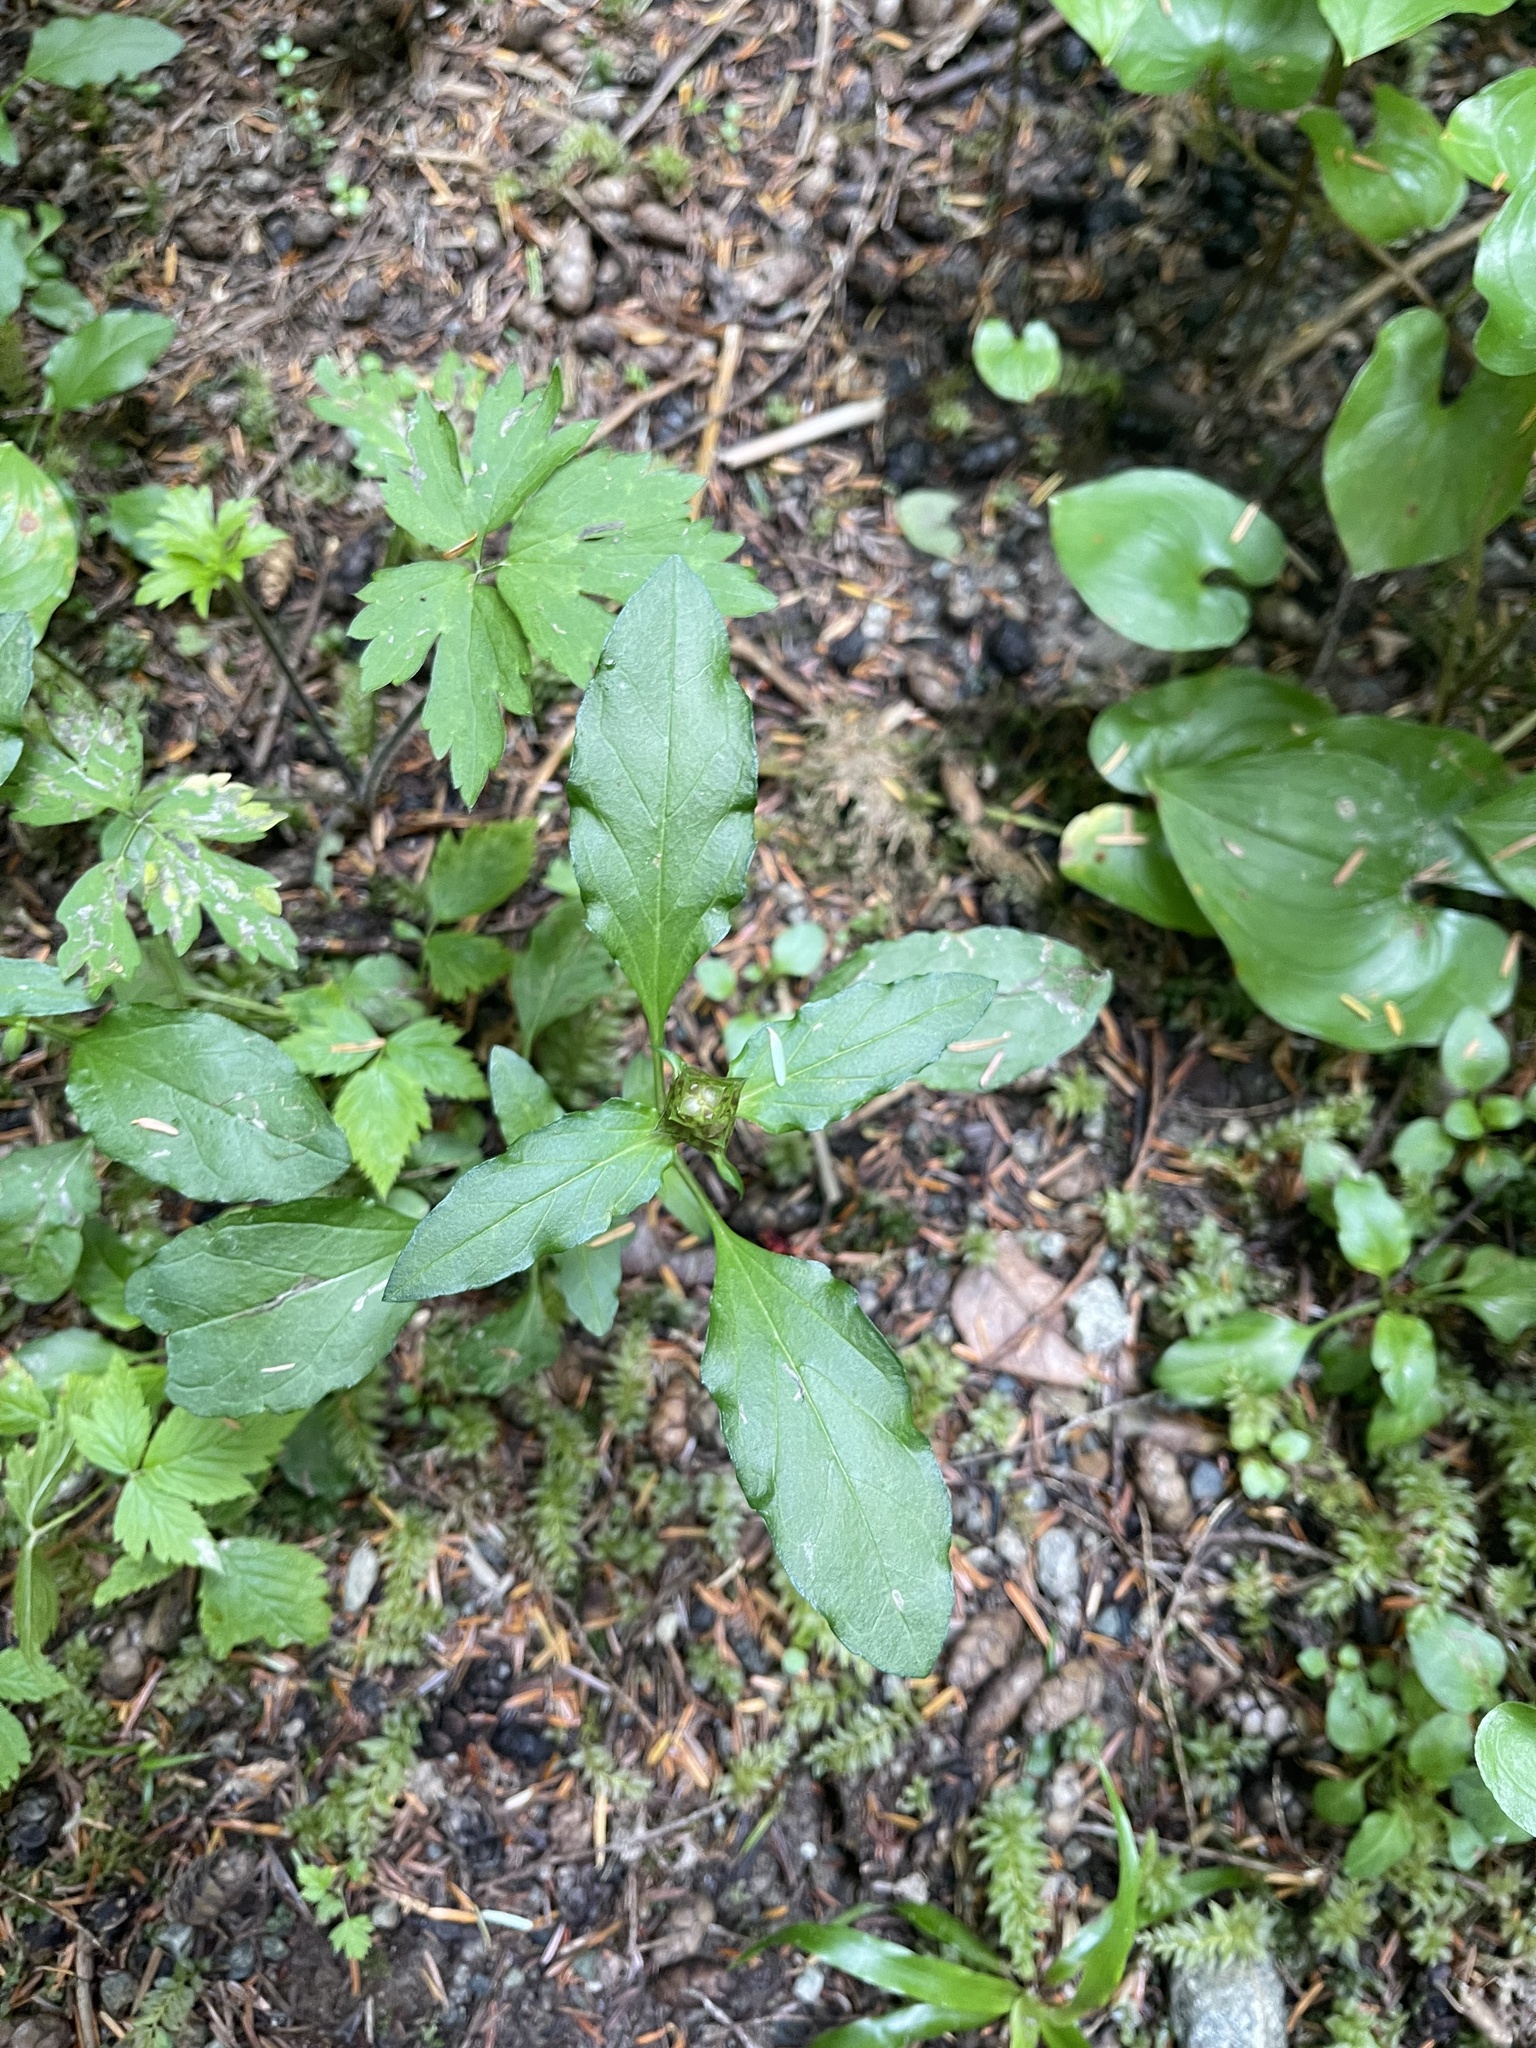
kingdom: Plantae
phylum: Tracheophyta
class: Magnoliopsida
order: Lamiales
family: Lamiaceae
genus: Prunella
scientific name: Prunella vulgaris
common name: Heal-all
